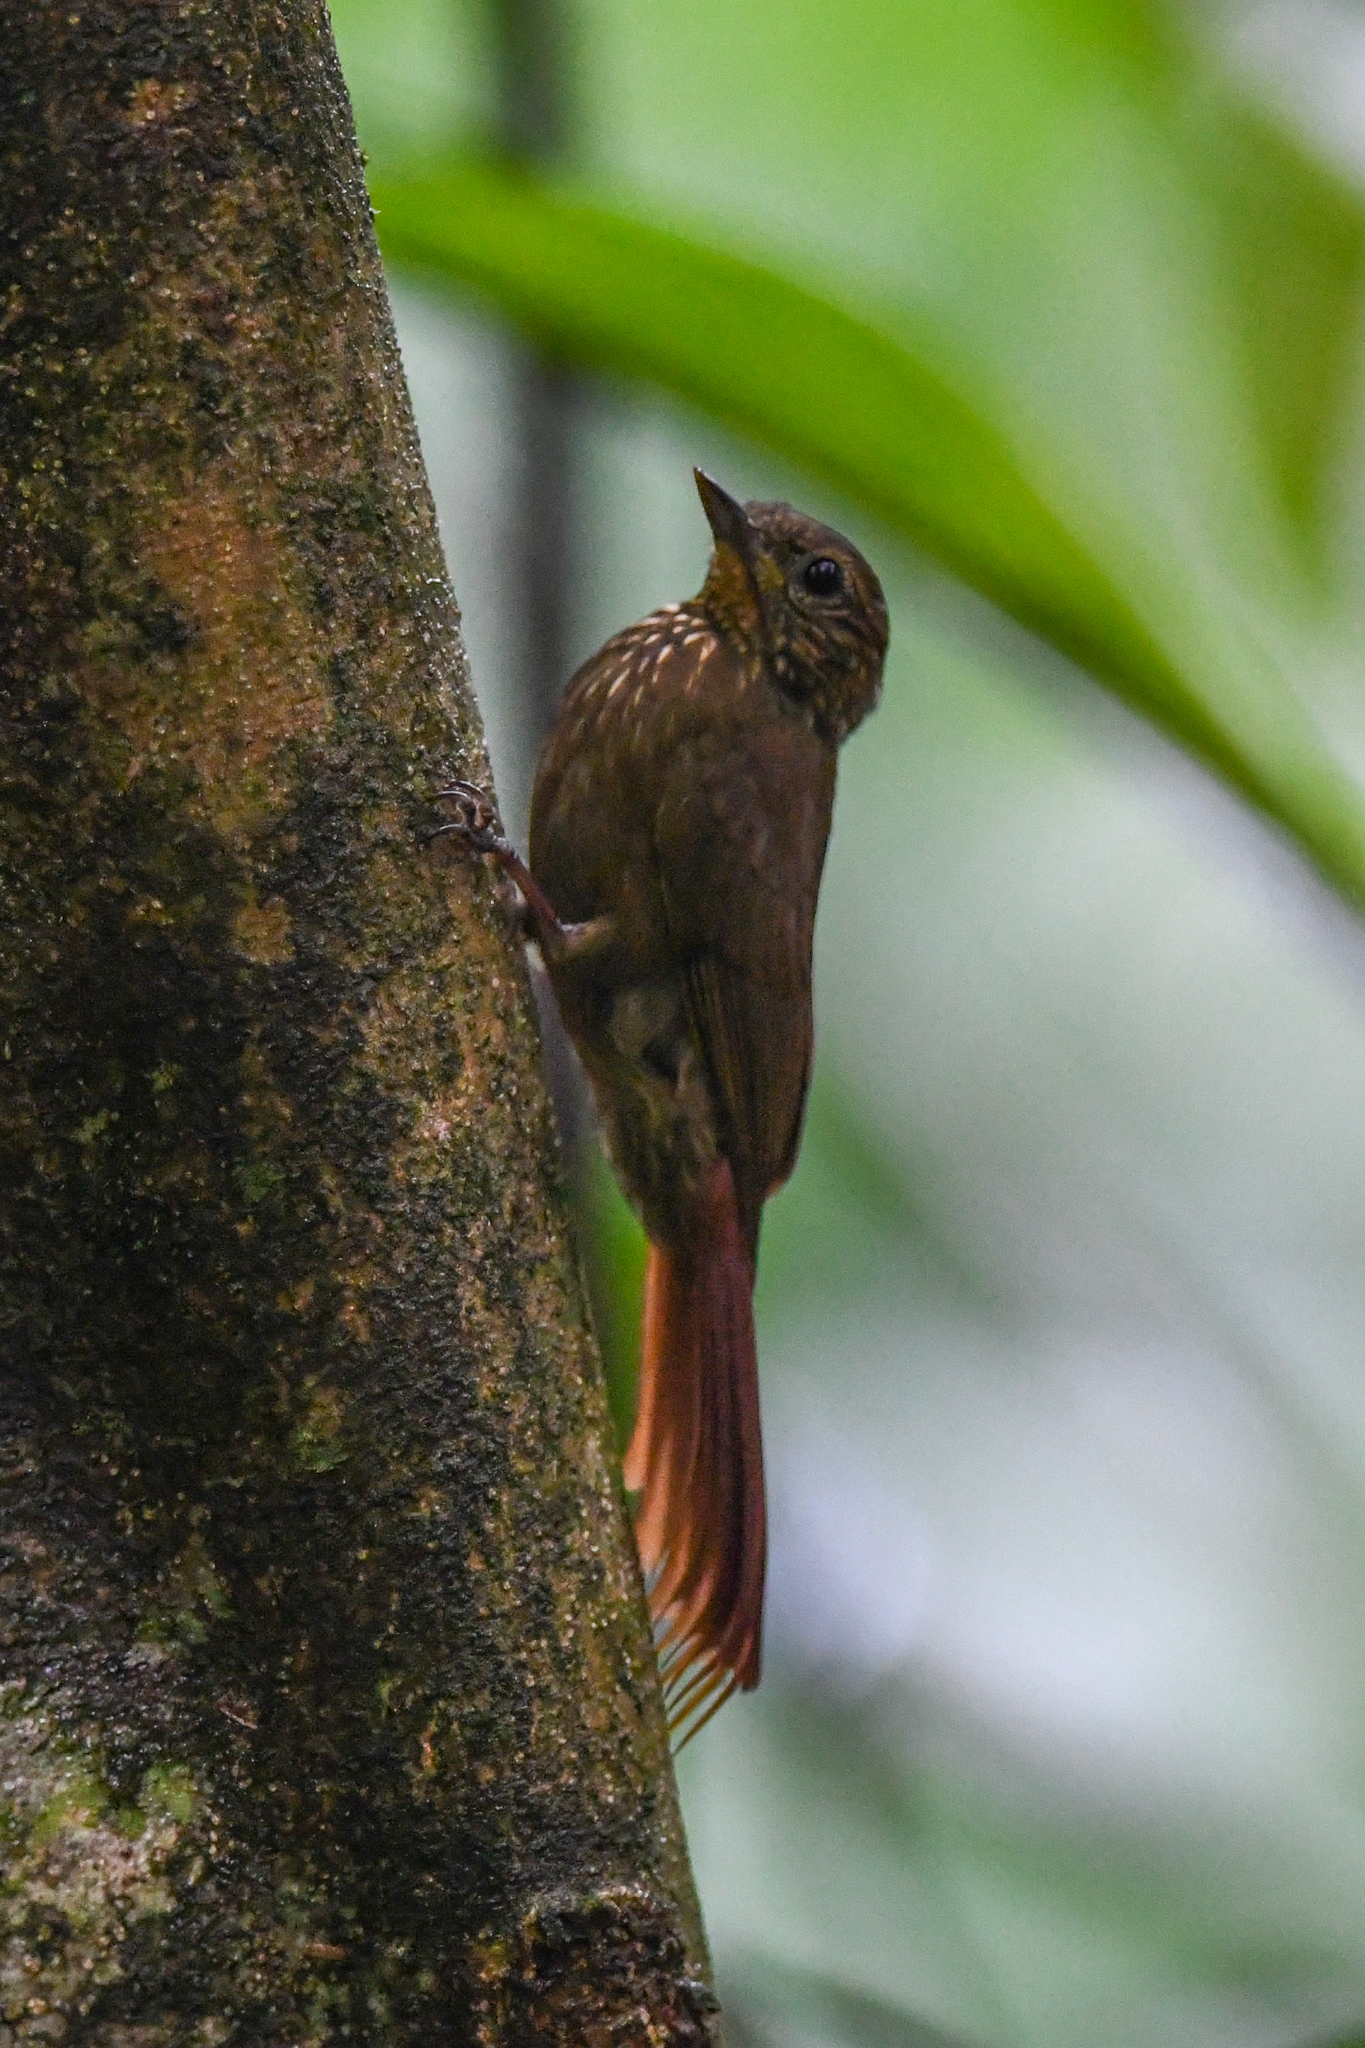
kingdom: Animalia
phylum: Chordata
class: Aves
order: Passeriformes
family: Furnariidae
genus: Glyphorynchus
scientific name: Glyphorynchus spirurus
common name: Wedge-billed woodcreeper
